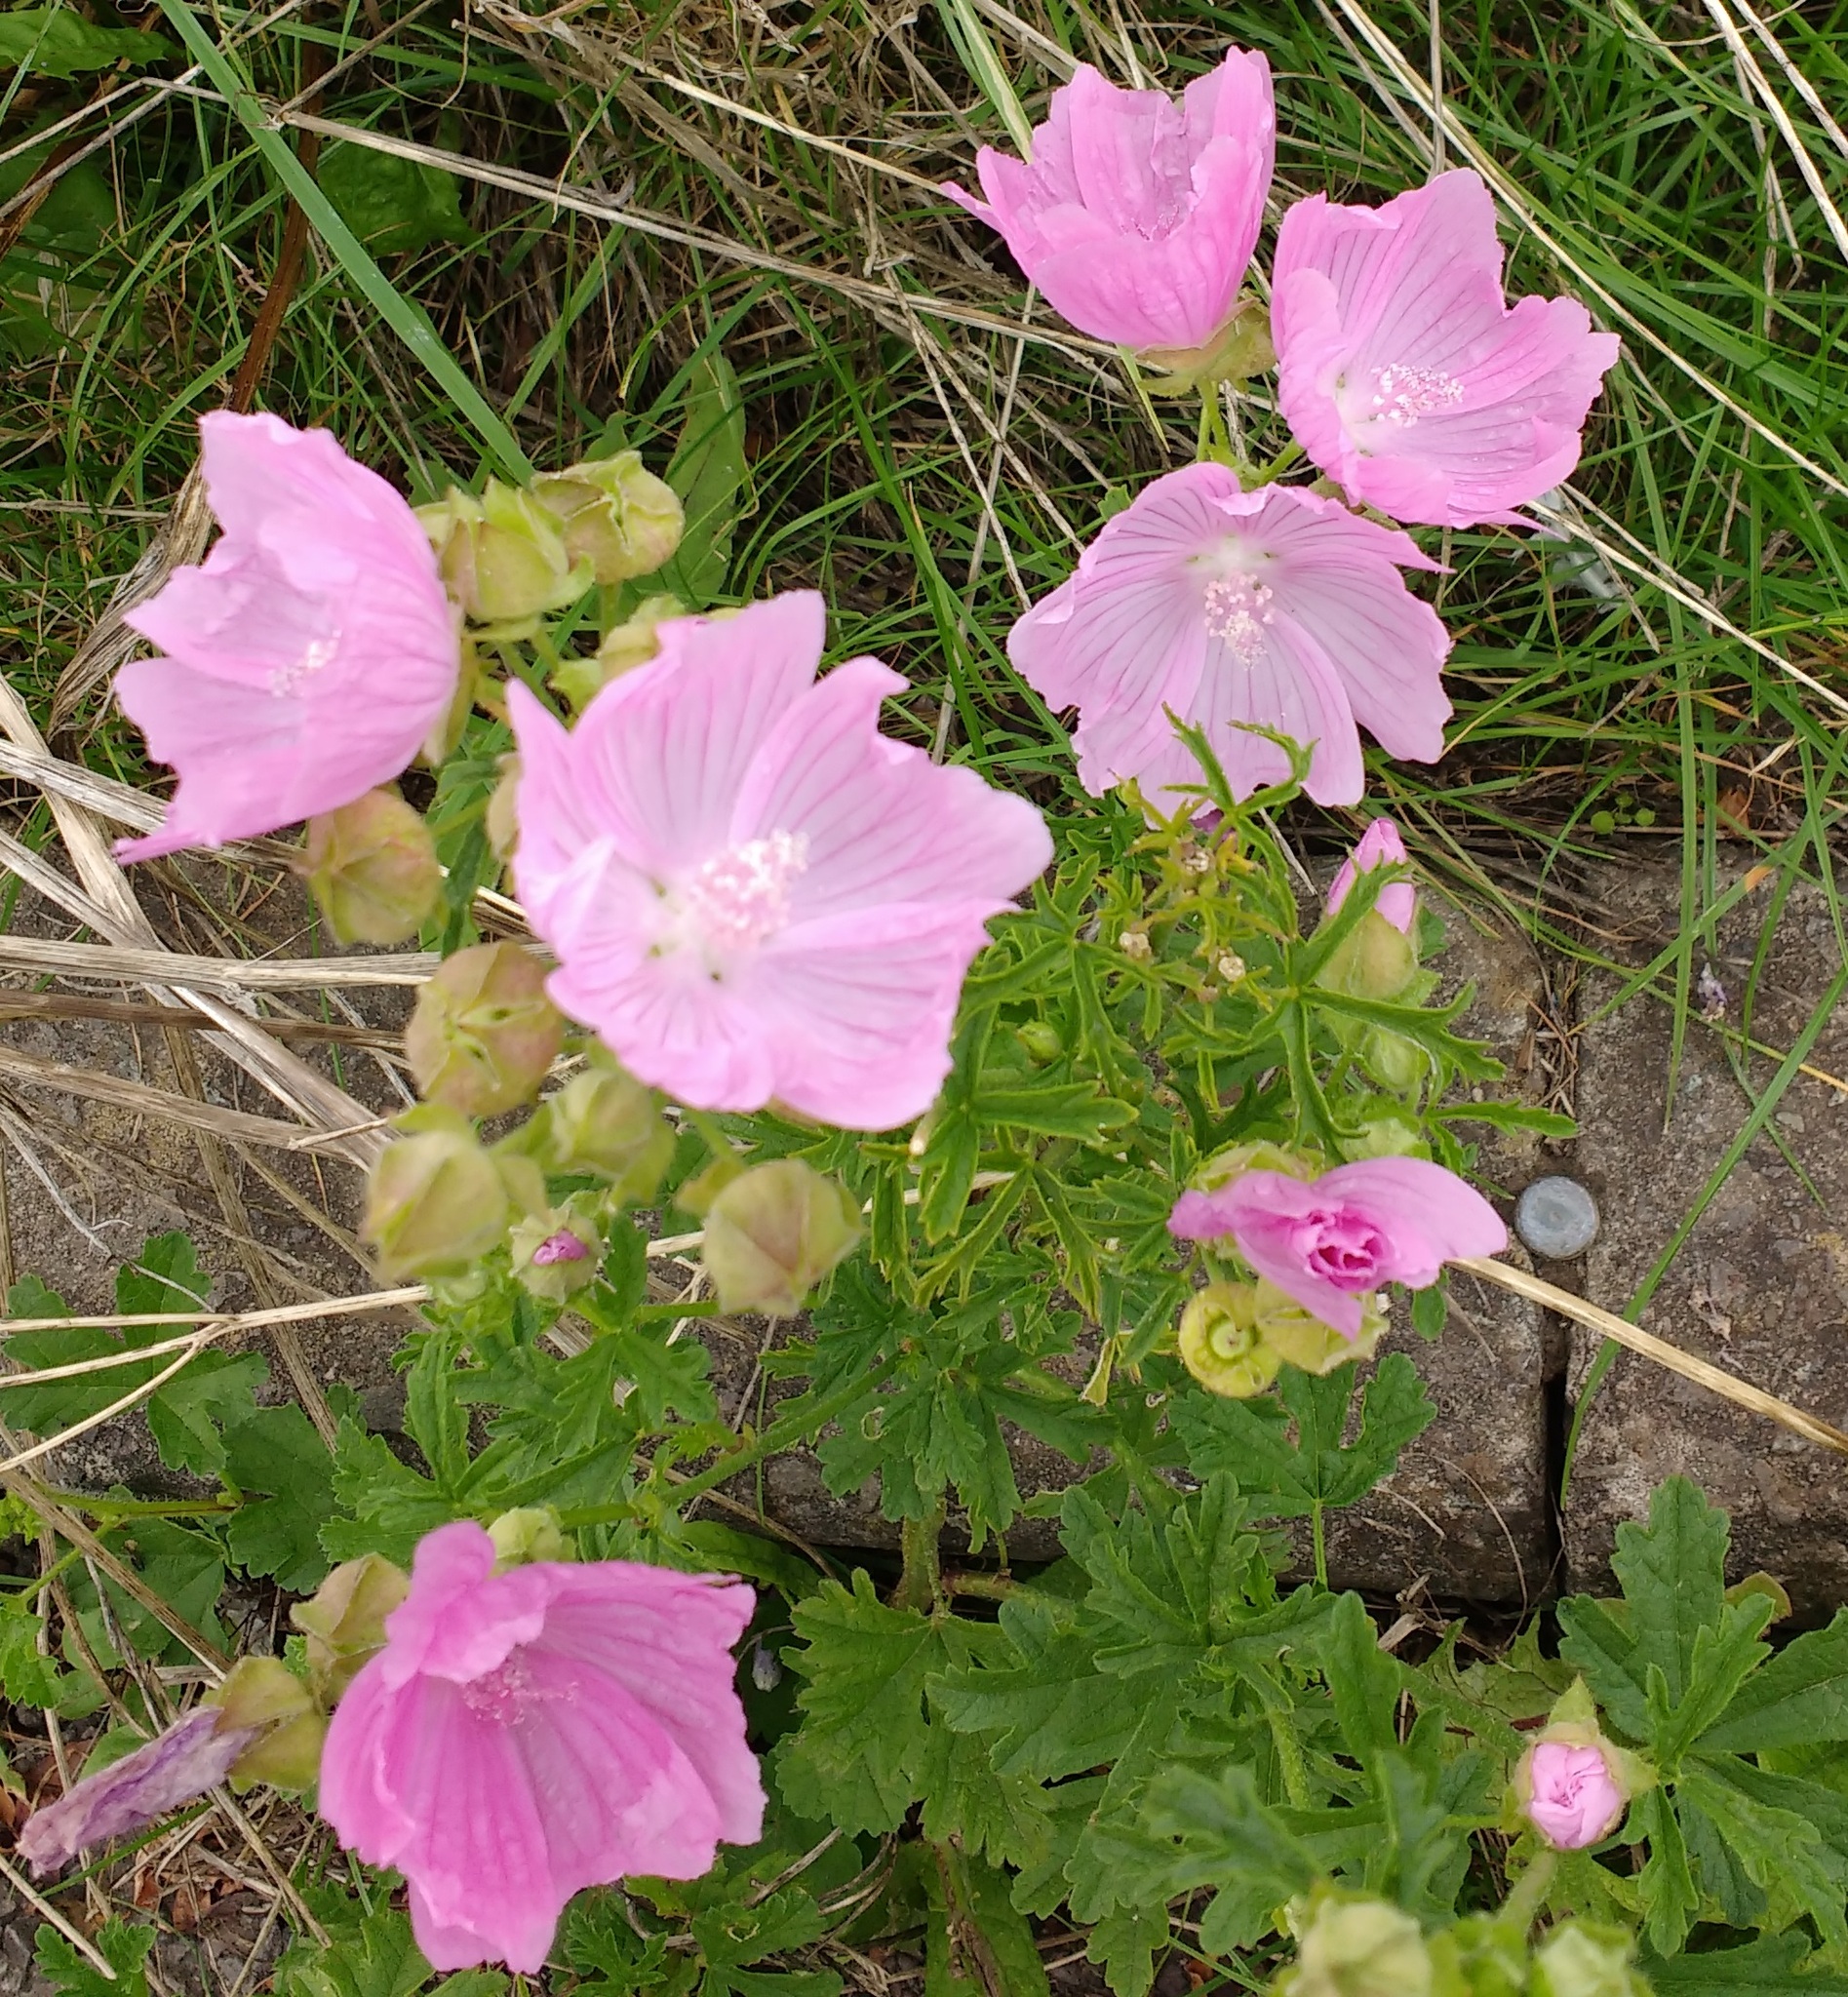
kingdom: Plantae
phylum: Tracheophyta
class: Magnoliopsida
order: Malvales
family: Malvaceae
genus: Malva
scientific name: Malva moschata
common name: Musk mallow
